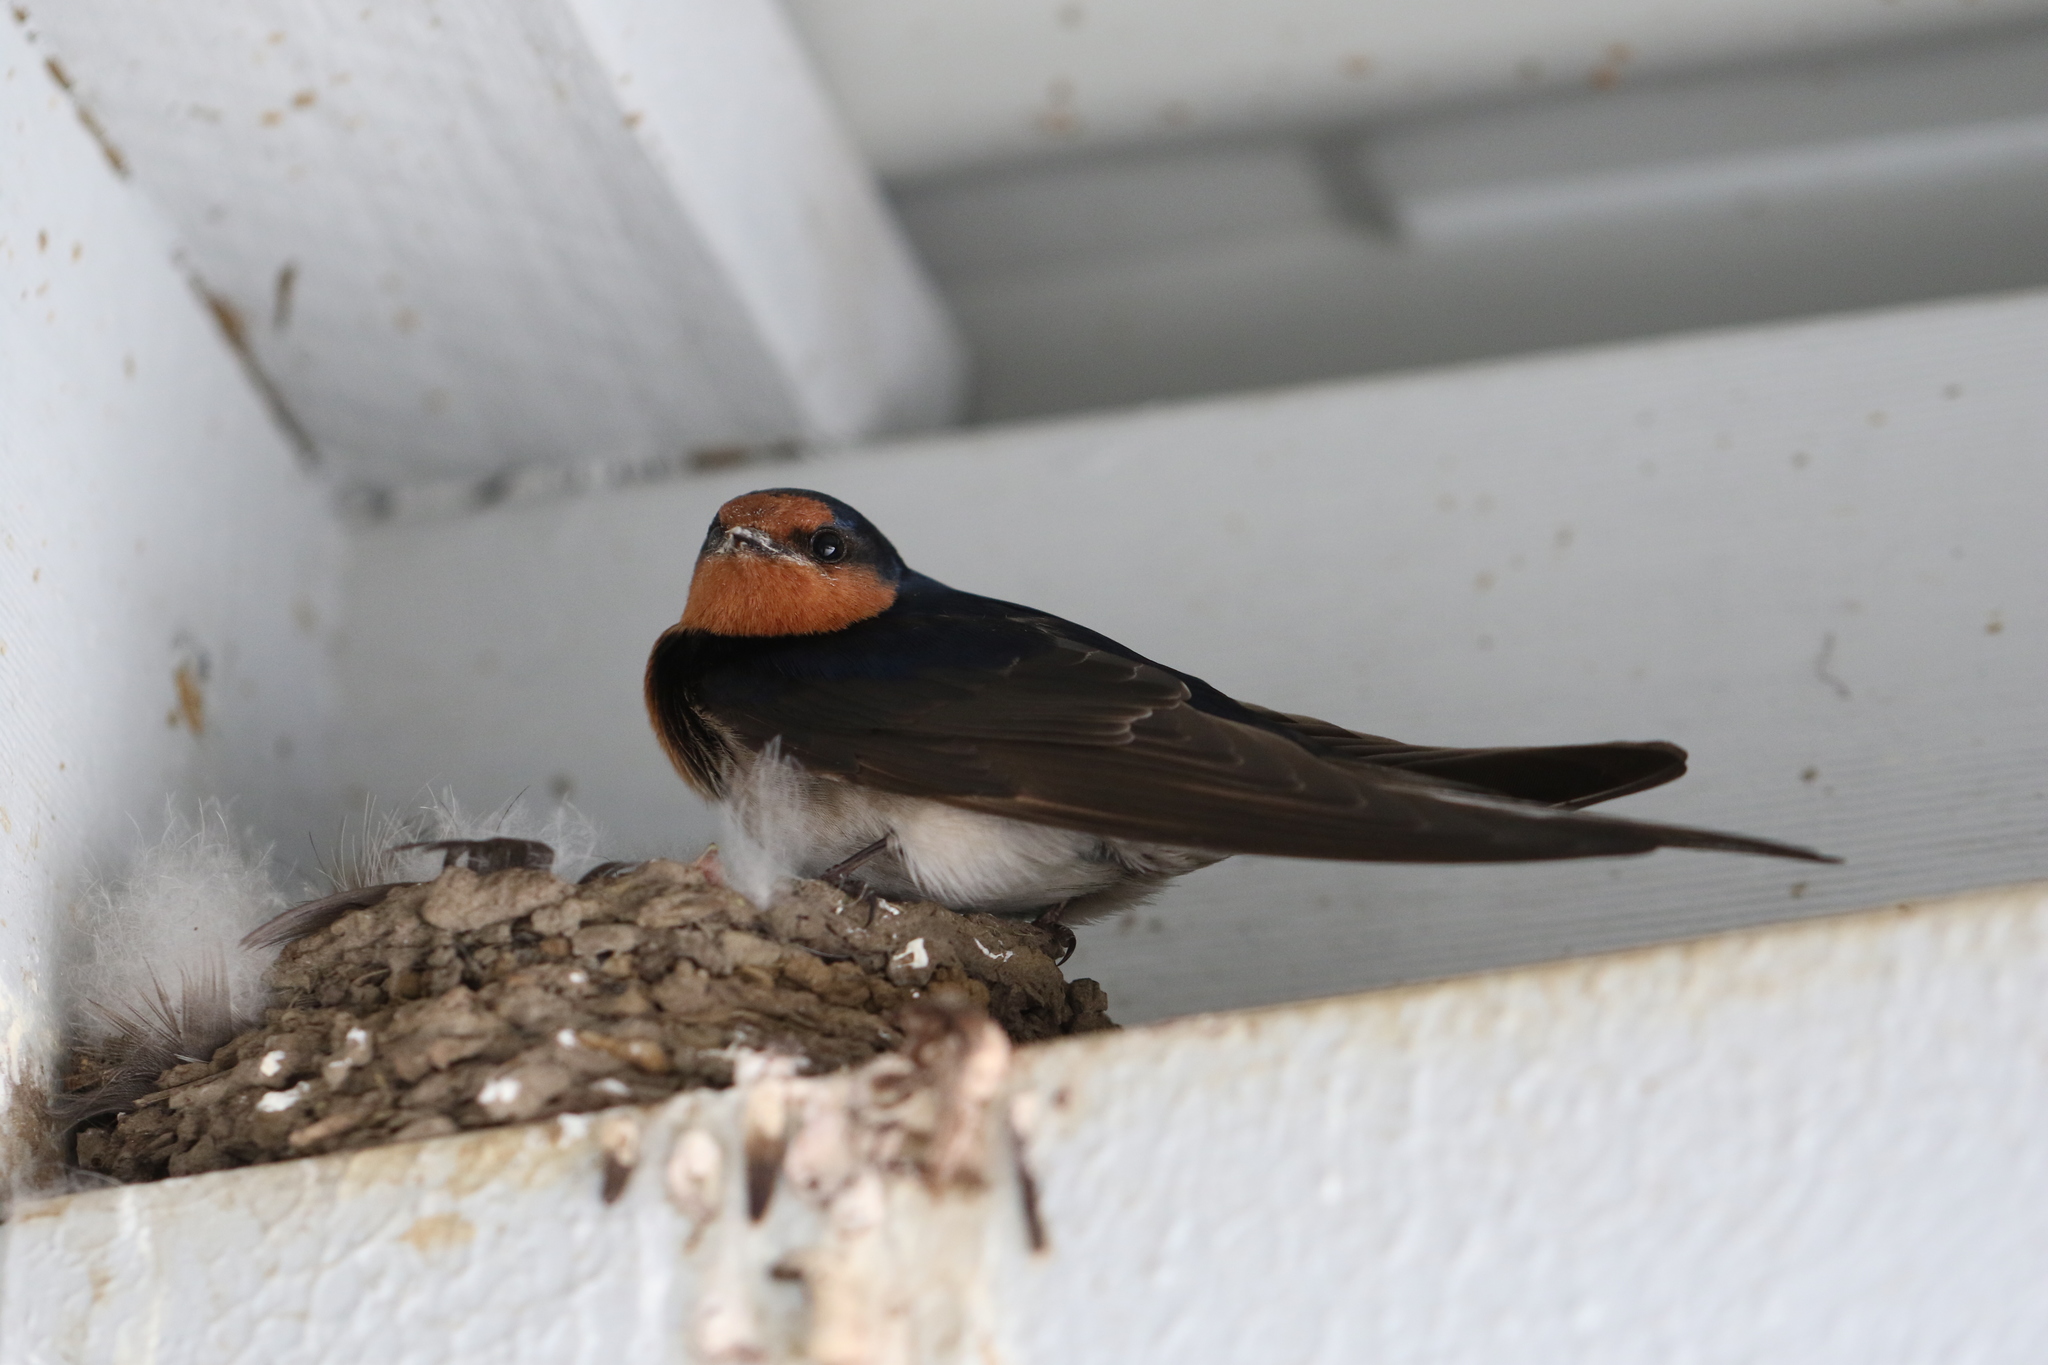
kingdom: Animalia
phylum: Chordata
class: Aves
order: Passeriformes
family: Hirundinidae
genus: Hirundo
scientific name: Hirundo neoxena
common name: Welcome swallow
